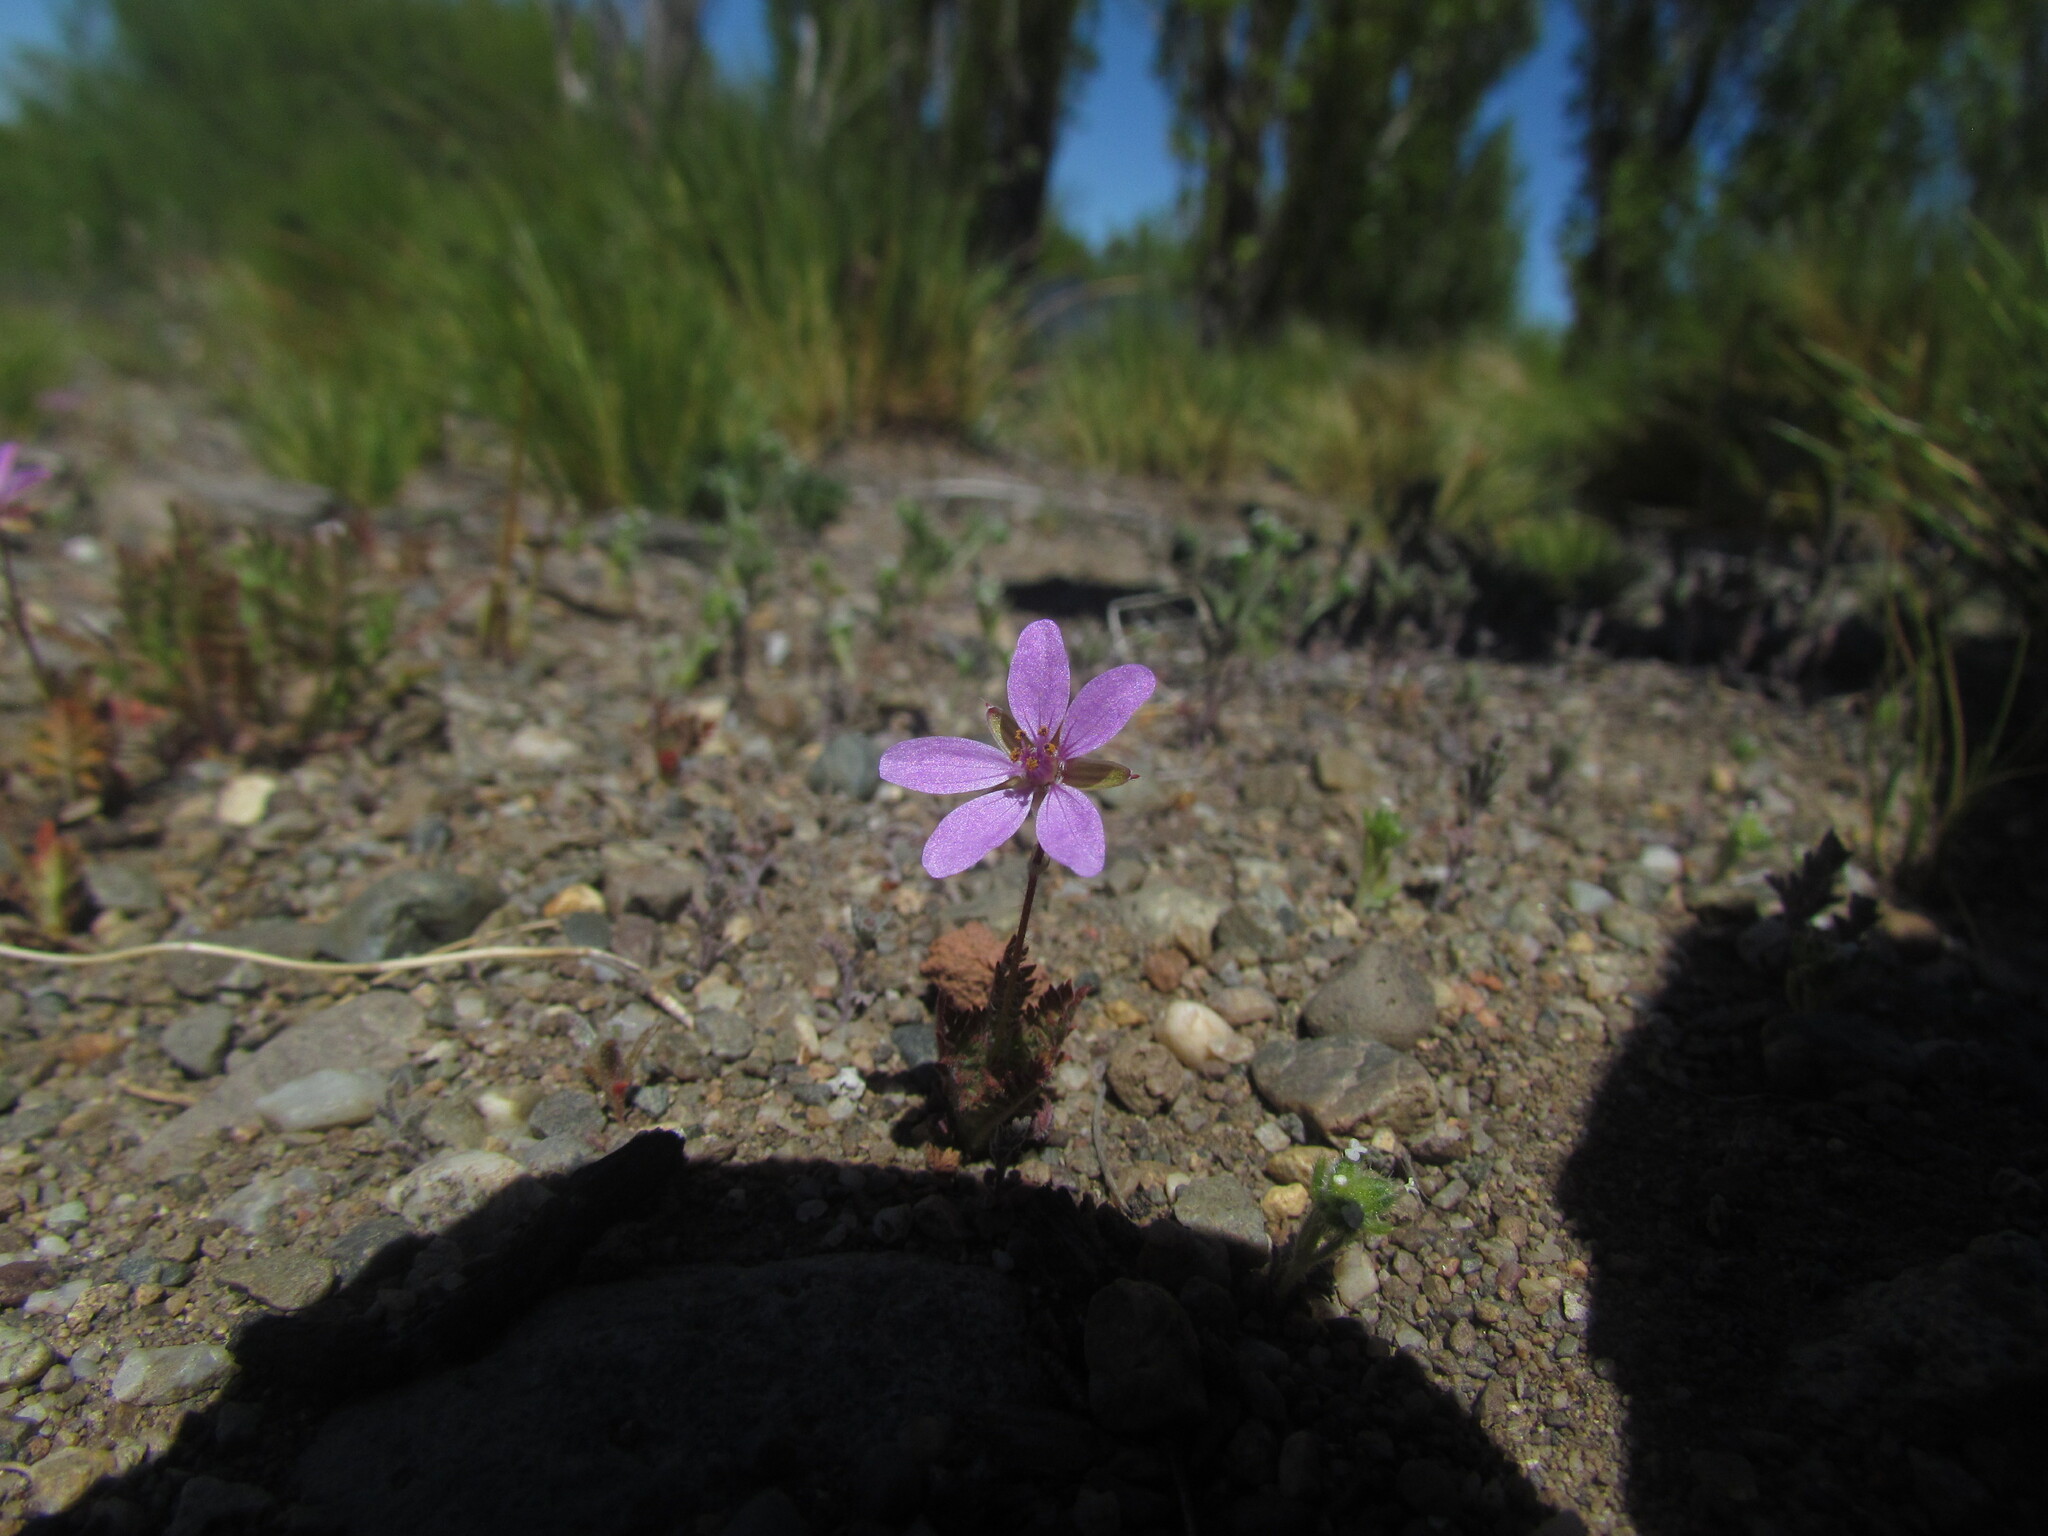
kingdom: Plantae
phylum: Tracheophyta
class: Magnoliopsida
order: Geraniales
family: Geraniaceae
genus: Erodium
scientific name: Erodium cicutarium
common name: Common stork's-bill
